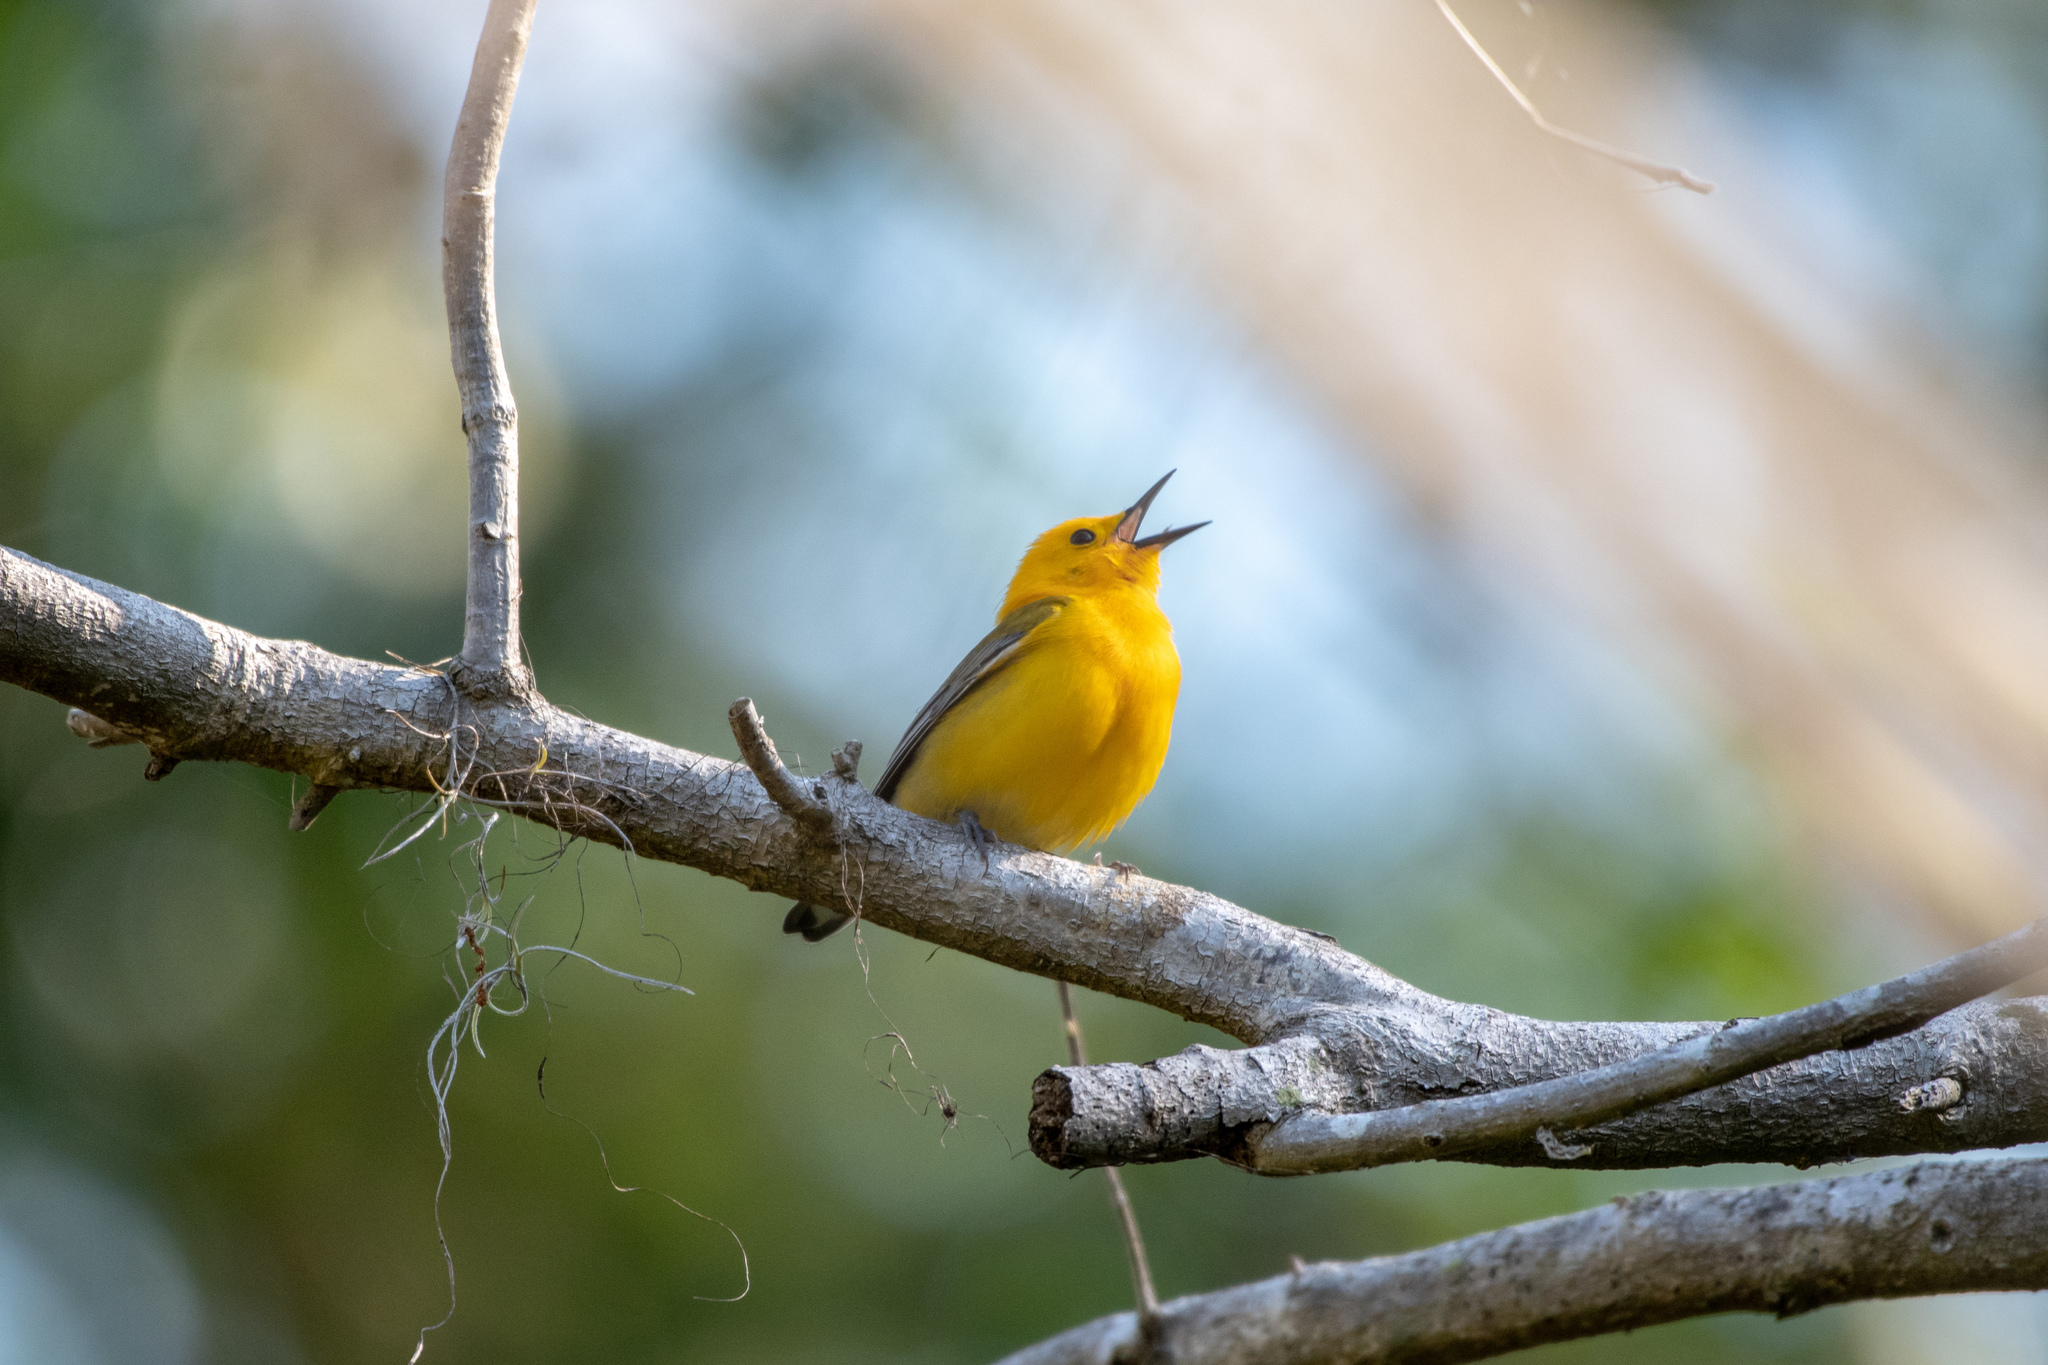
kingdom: Animalia
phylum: Chordata
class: Aves
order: Passeriformes
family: Parulidae
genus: Protonotaria
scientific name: Protonotaria citrea
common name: Prothonotary warbler
